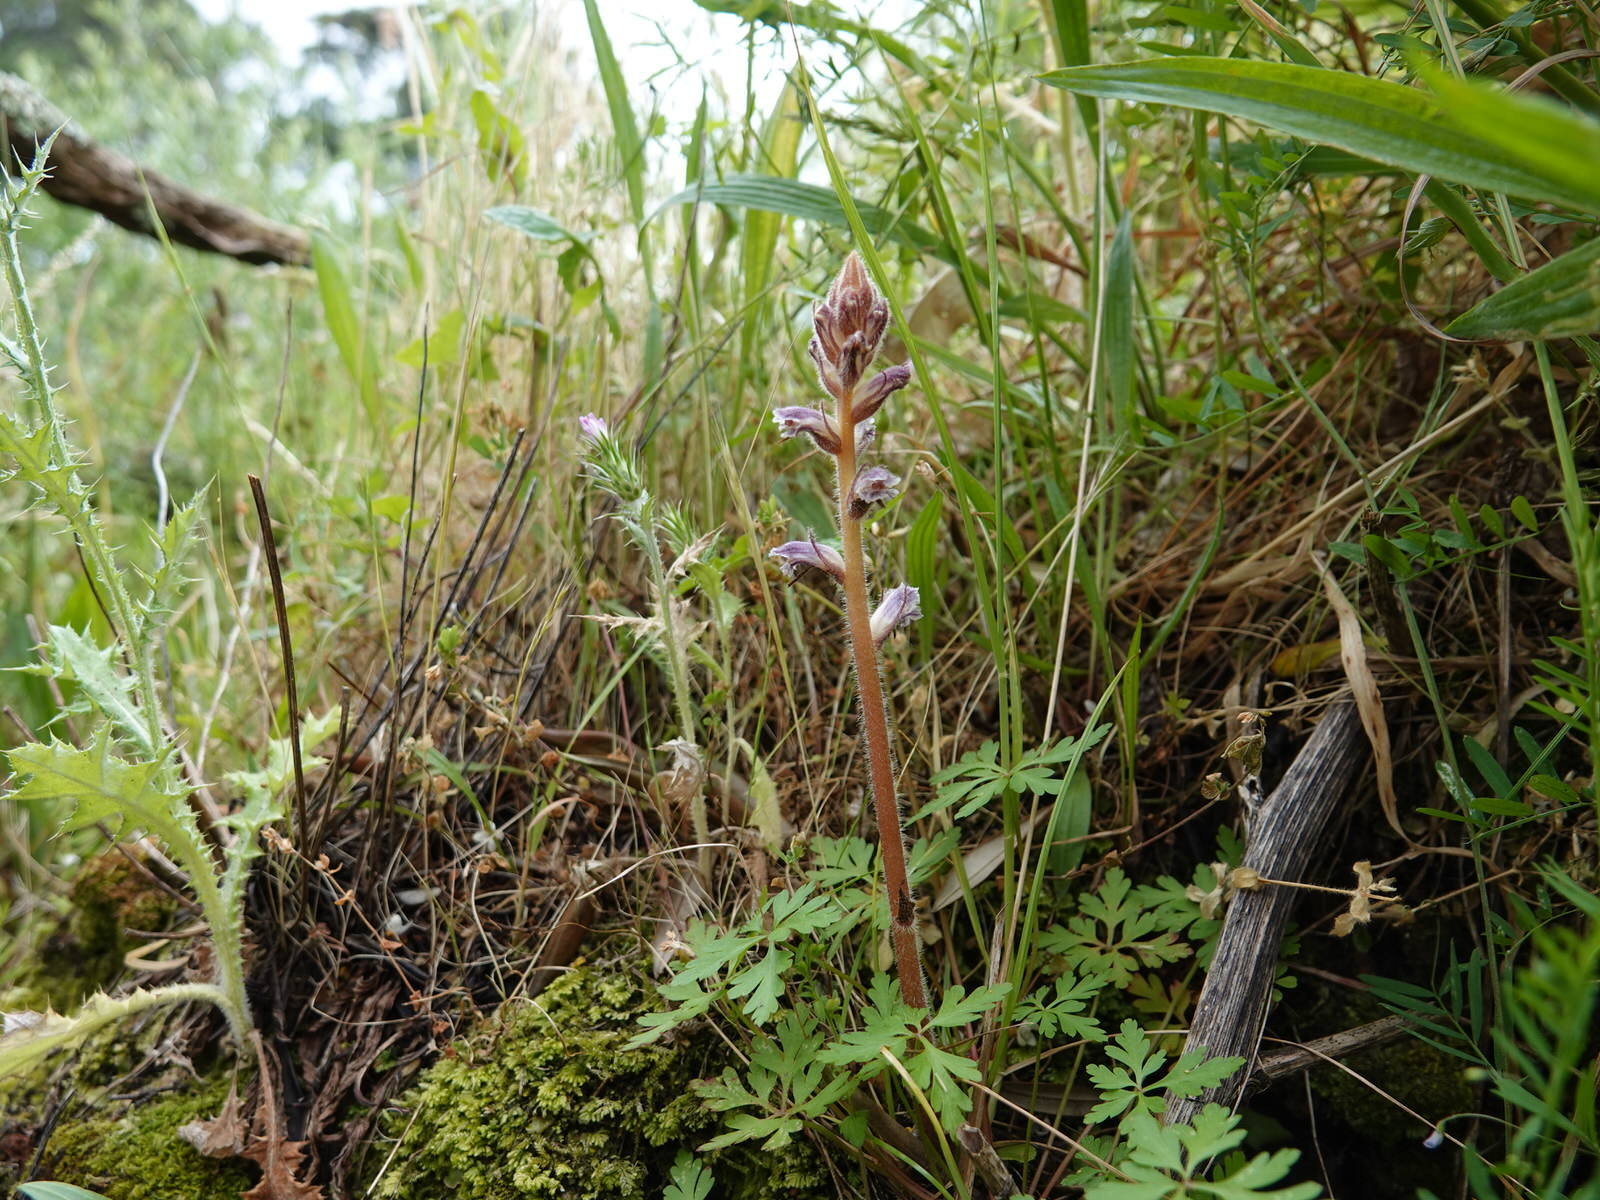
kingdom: Plantae
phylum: Tracheophyta
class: Magnoliopsida
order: Lamiales
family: Orobanchaceae
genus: Orobanche
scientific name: Orobanche minor
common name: Common broomrape
